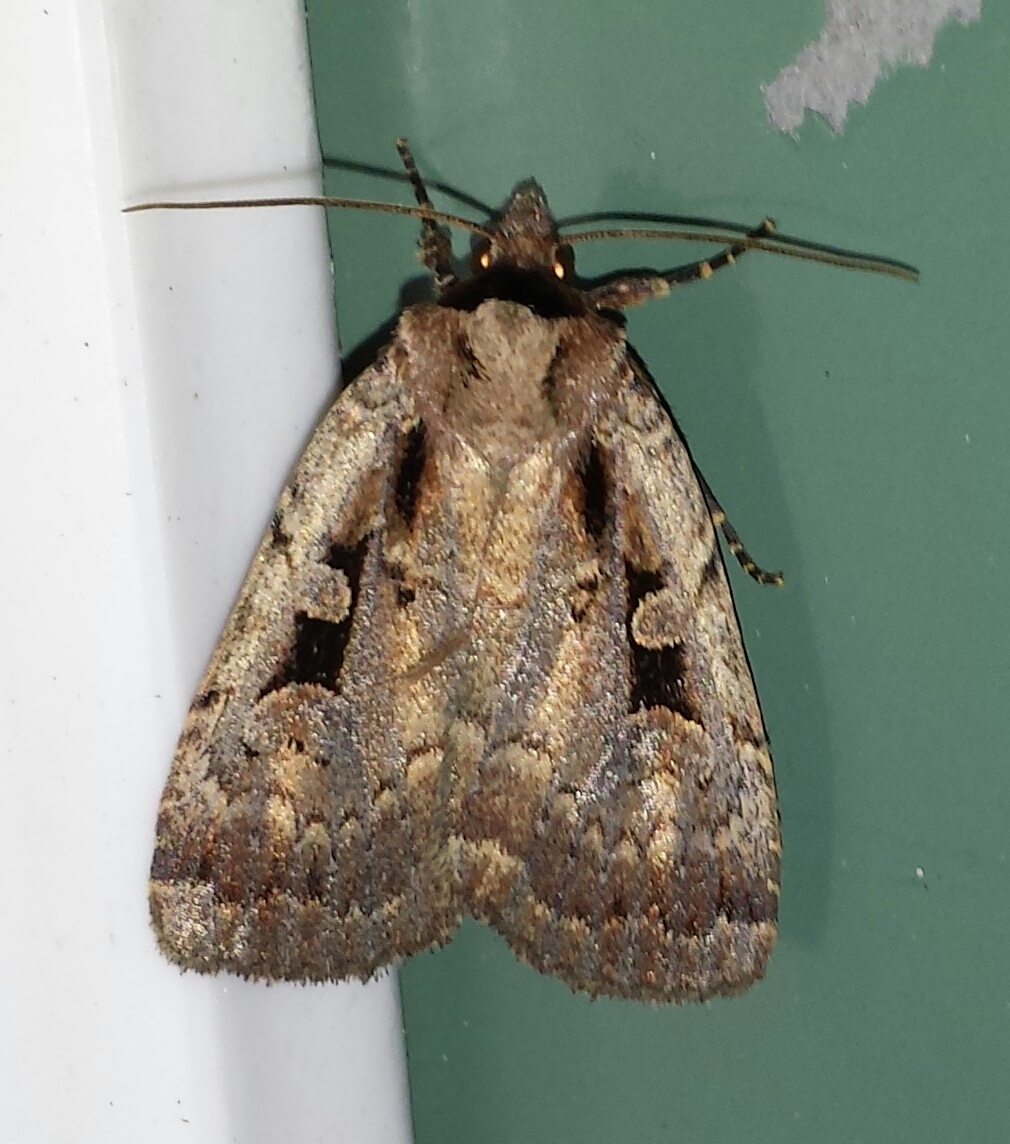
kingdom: Animalia
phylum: Arthropoda
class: Insecta
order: Lepidoptera
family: Noctuidae
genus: Eueretagrotis
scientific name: Eueretagrotis perattentus
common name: Two-spot dart moth
